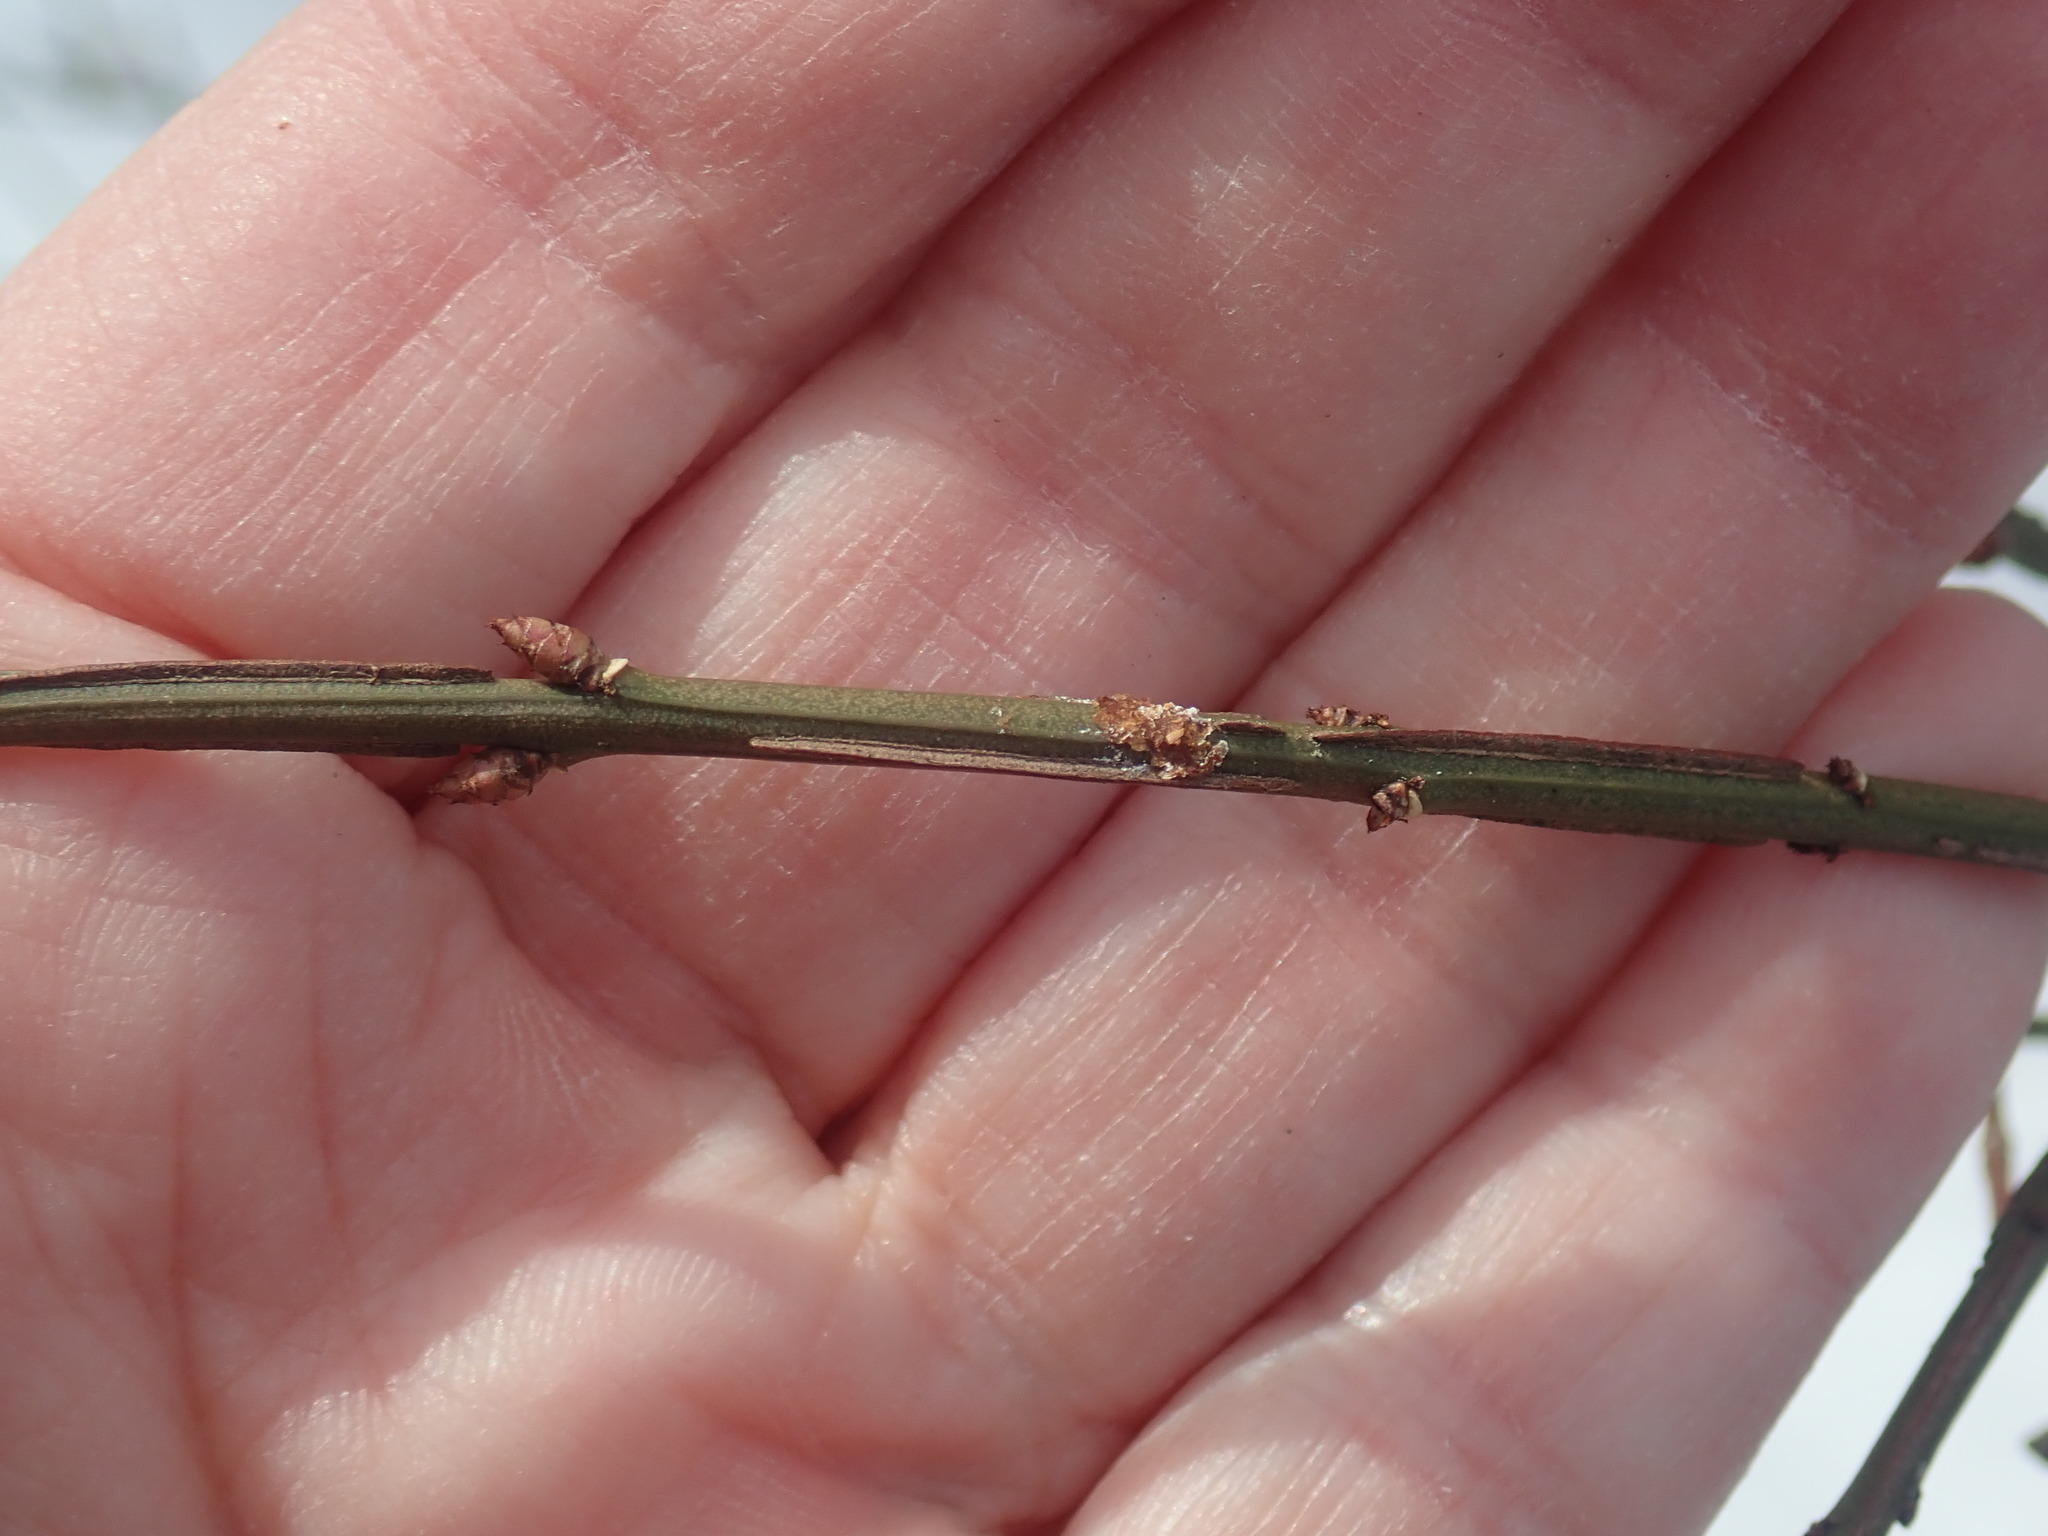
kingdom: Plantae
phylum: Tracheophyta
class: Magnoliopsida
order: Celastrales
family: Celastraceae
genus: Euonymus
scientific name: Euonymus alatus
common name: Winged euonymus
